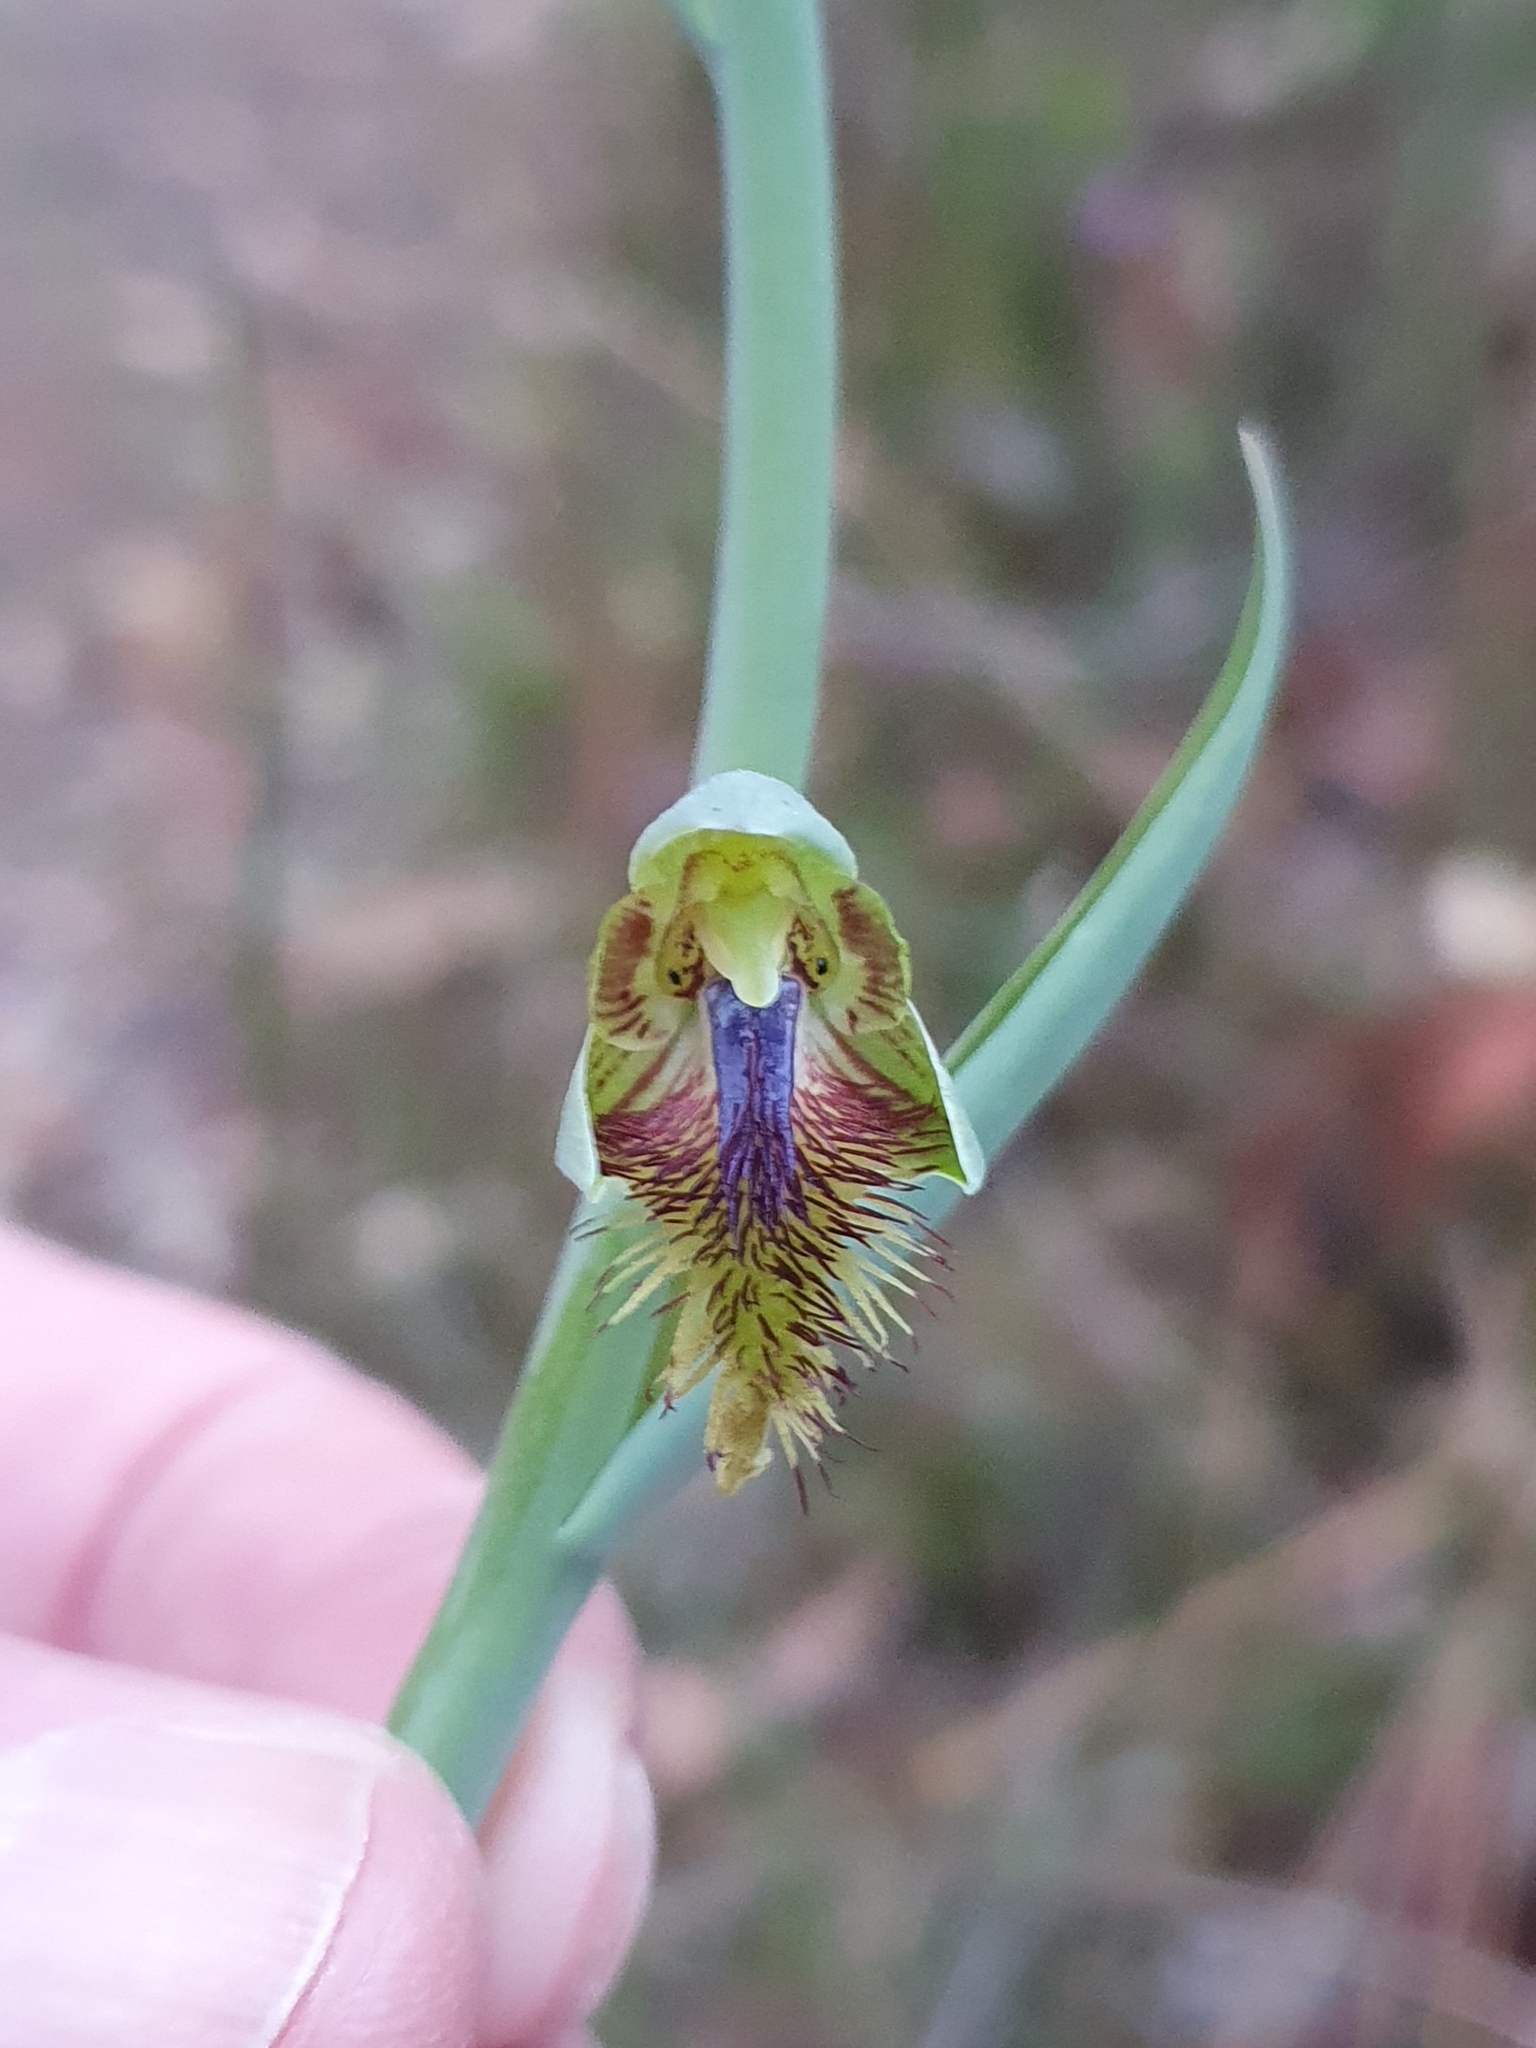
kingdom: Plantae
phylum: Tracheophyta
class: Liliopsida
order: Asparagales
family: Orchidaceae
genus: Calochilus
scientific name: Calochilus campestris
